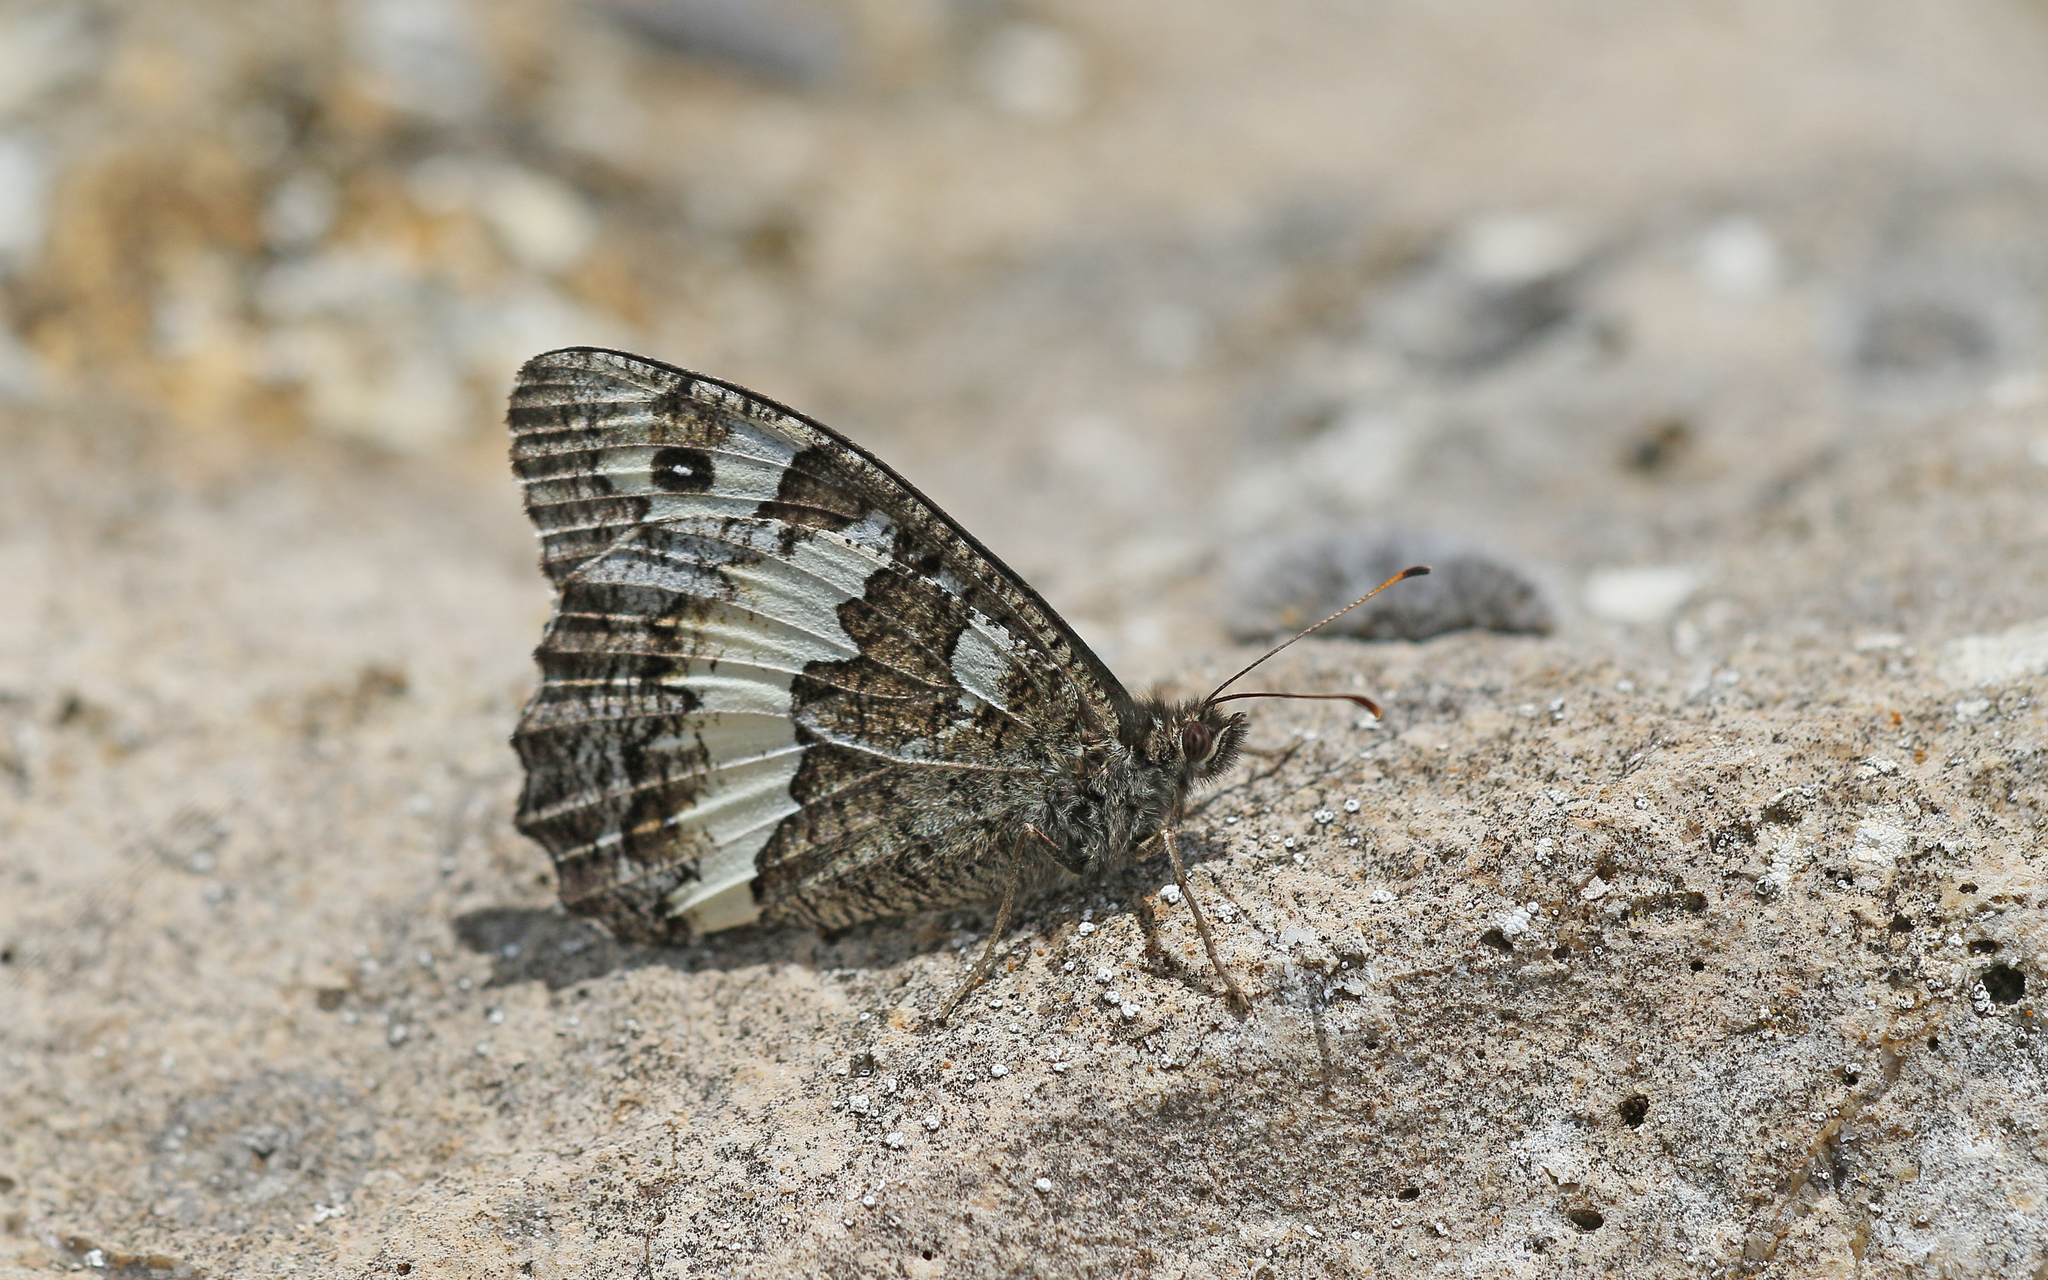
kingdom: Animalia
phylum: Arthropoda
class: Insecta
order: Lepidoptera
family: Lycaenidae
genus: Loweia
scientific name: Loweia tityrus
